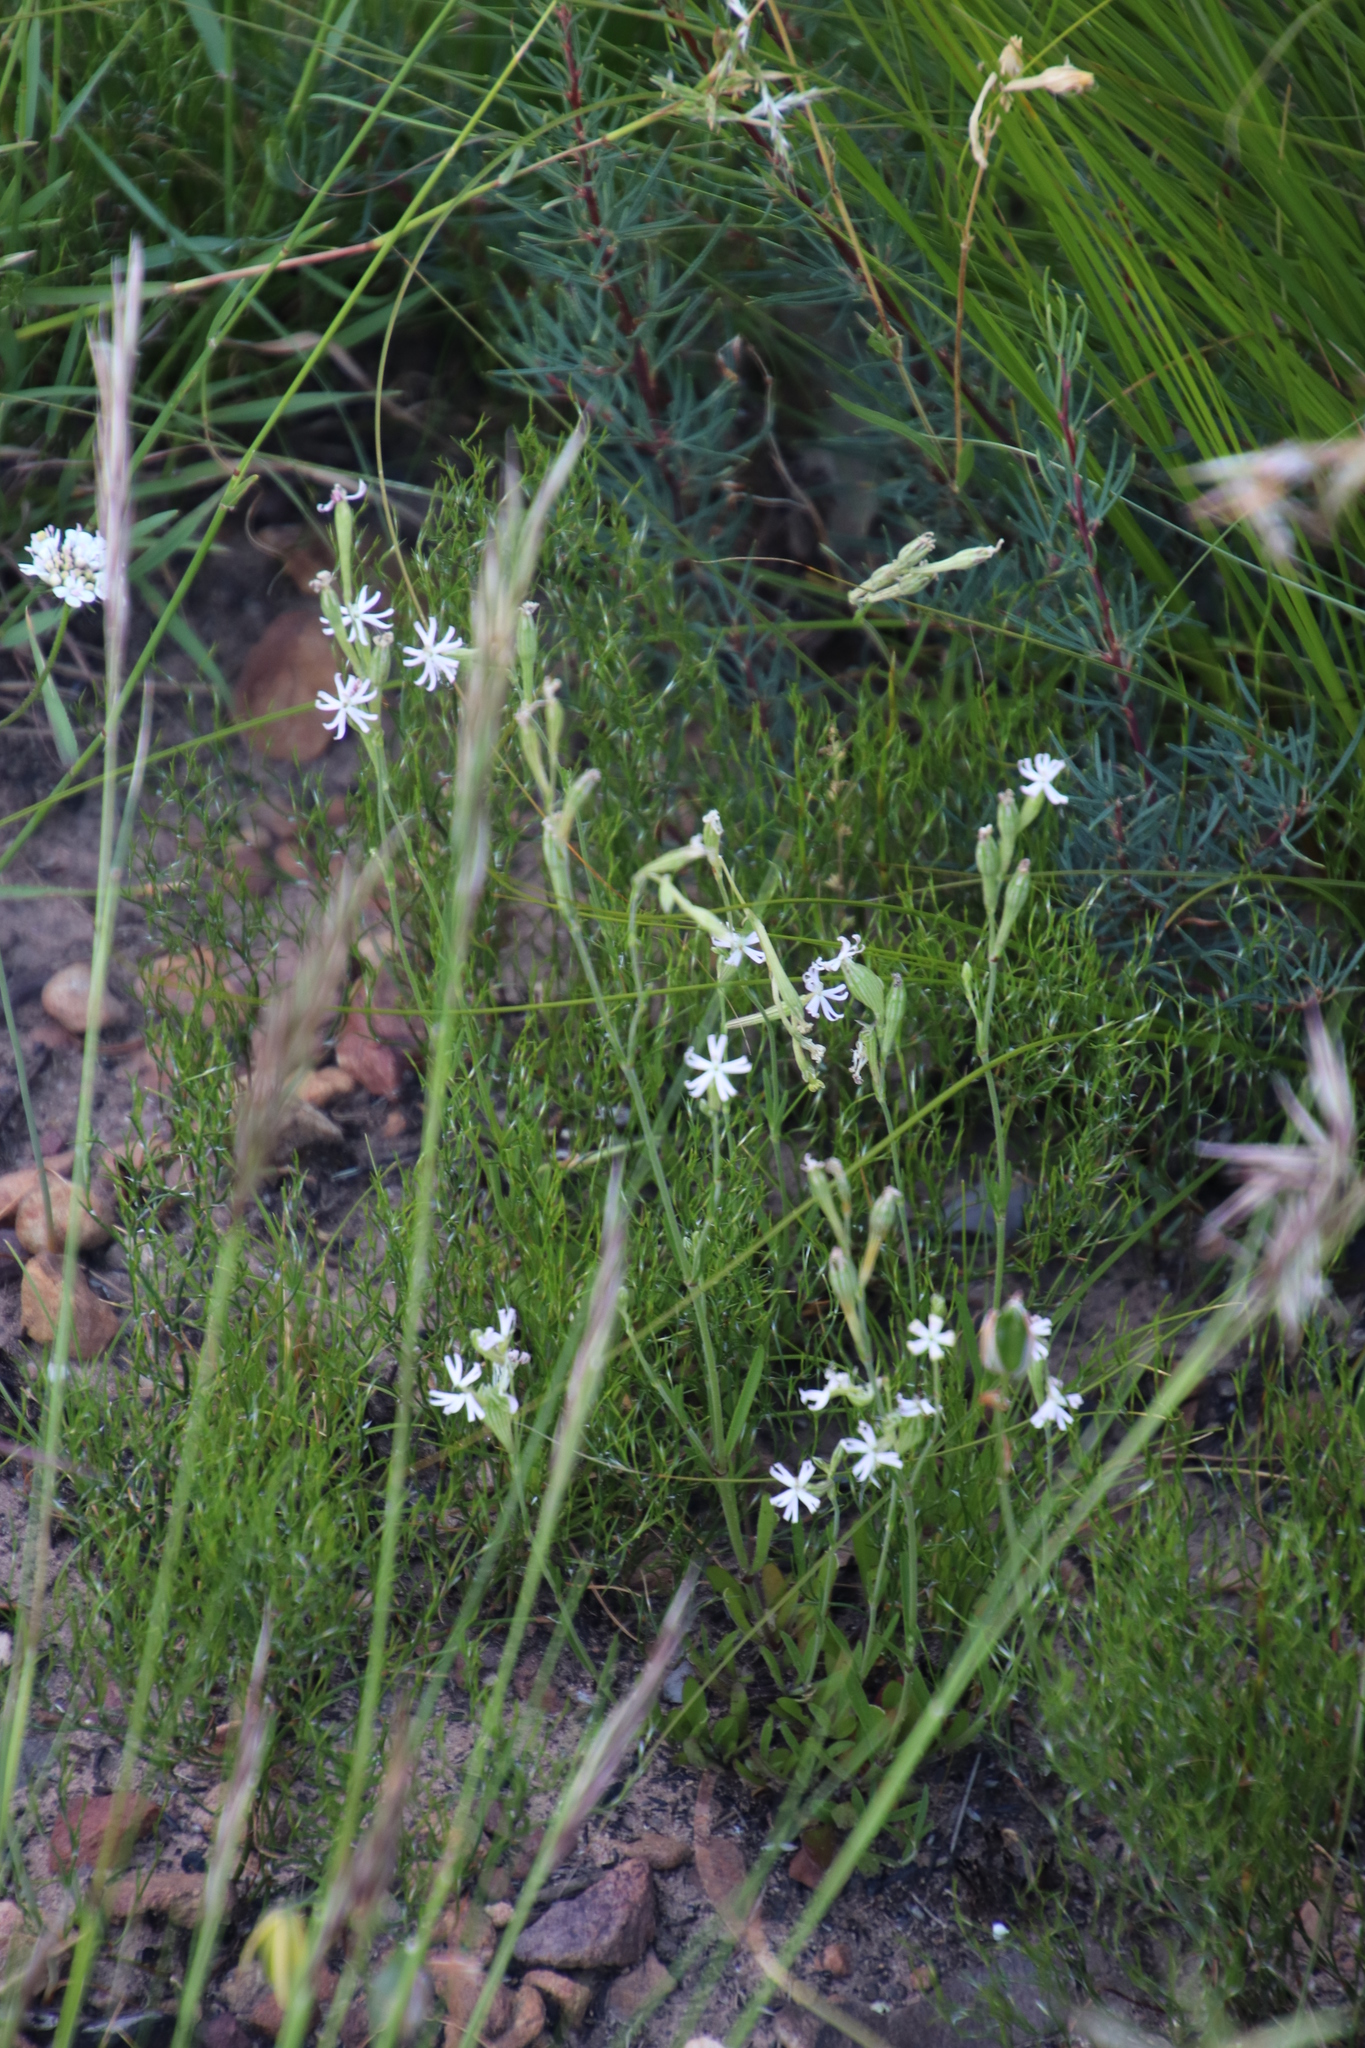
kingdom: Plantae
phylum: Tracheophyta
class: Magnoliopsida
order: Caryophyllales
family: Caryophyllaceae
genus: Silene
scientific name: Silene burchellii
